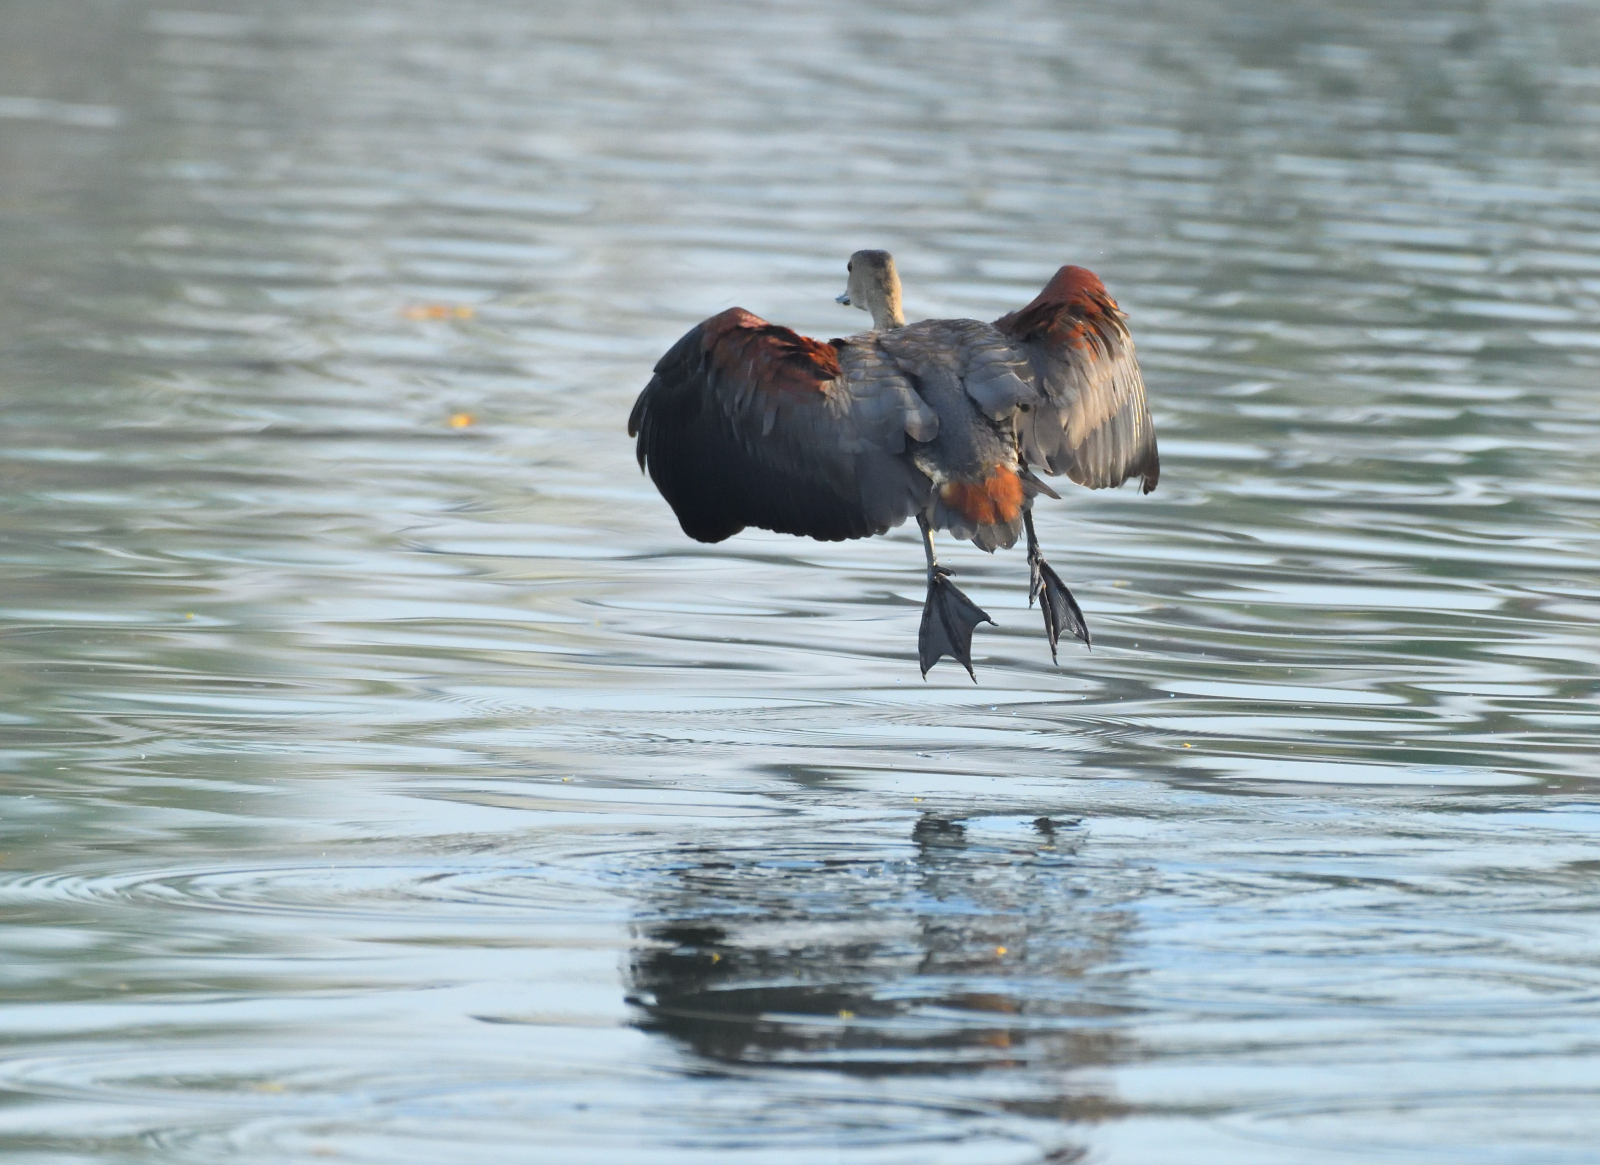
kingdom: Animalia
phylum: Chordata
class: Aves
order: Anseriformes
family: Anatidae
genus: Dendrocygna
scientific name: Dendrocygna javanica
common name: Lesser whistling-duck
